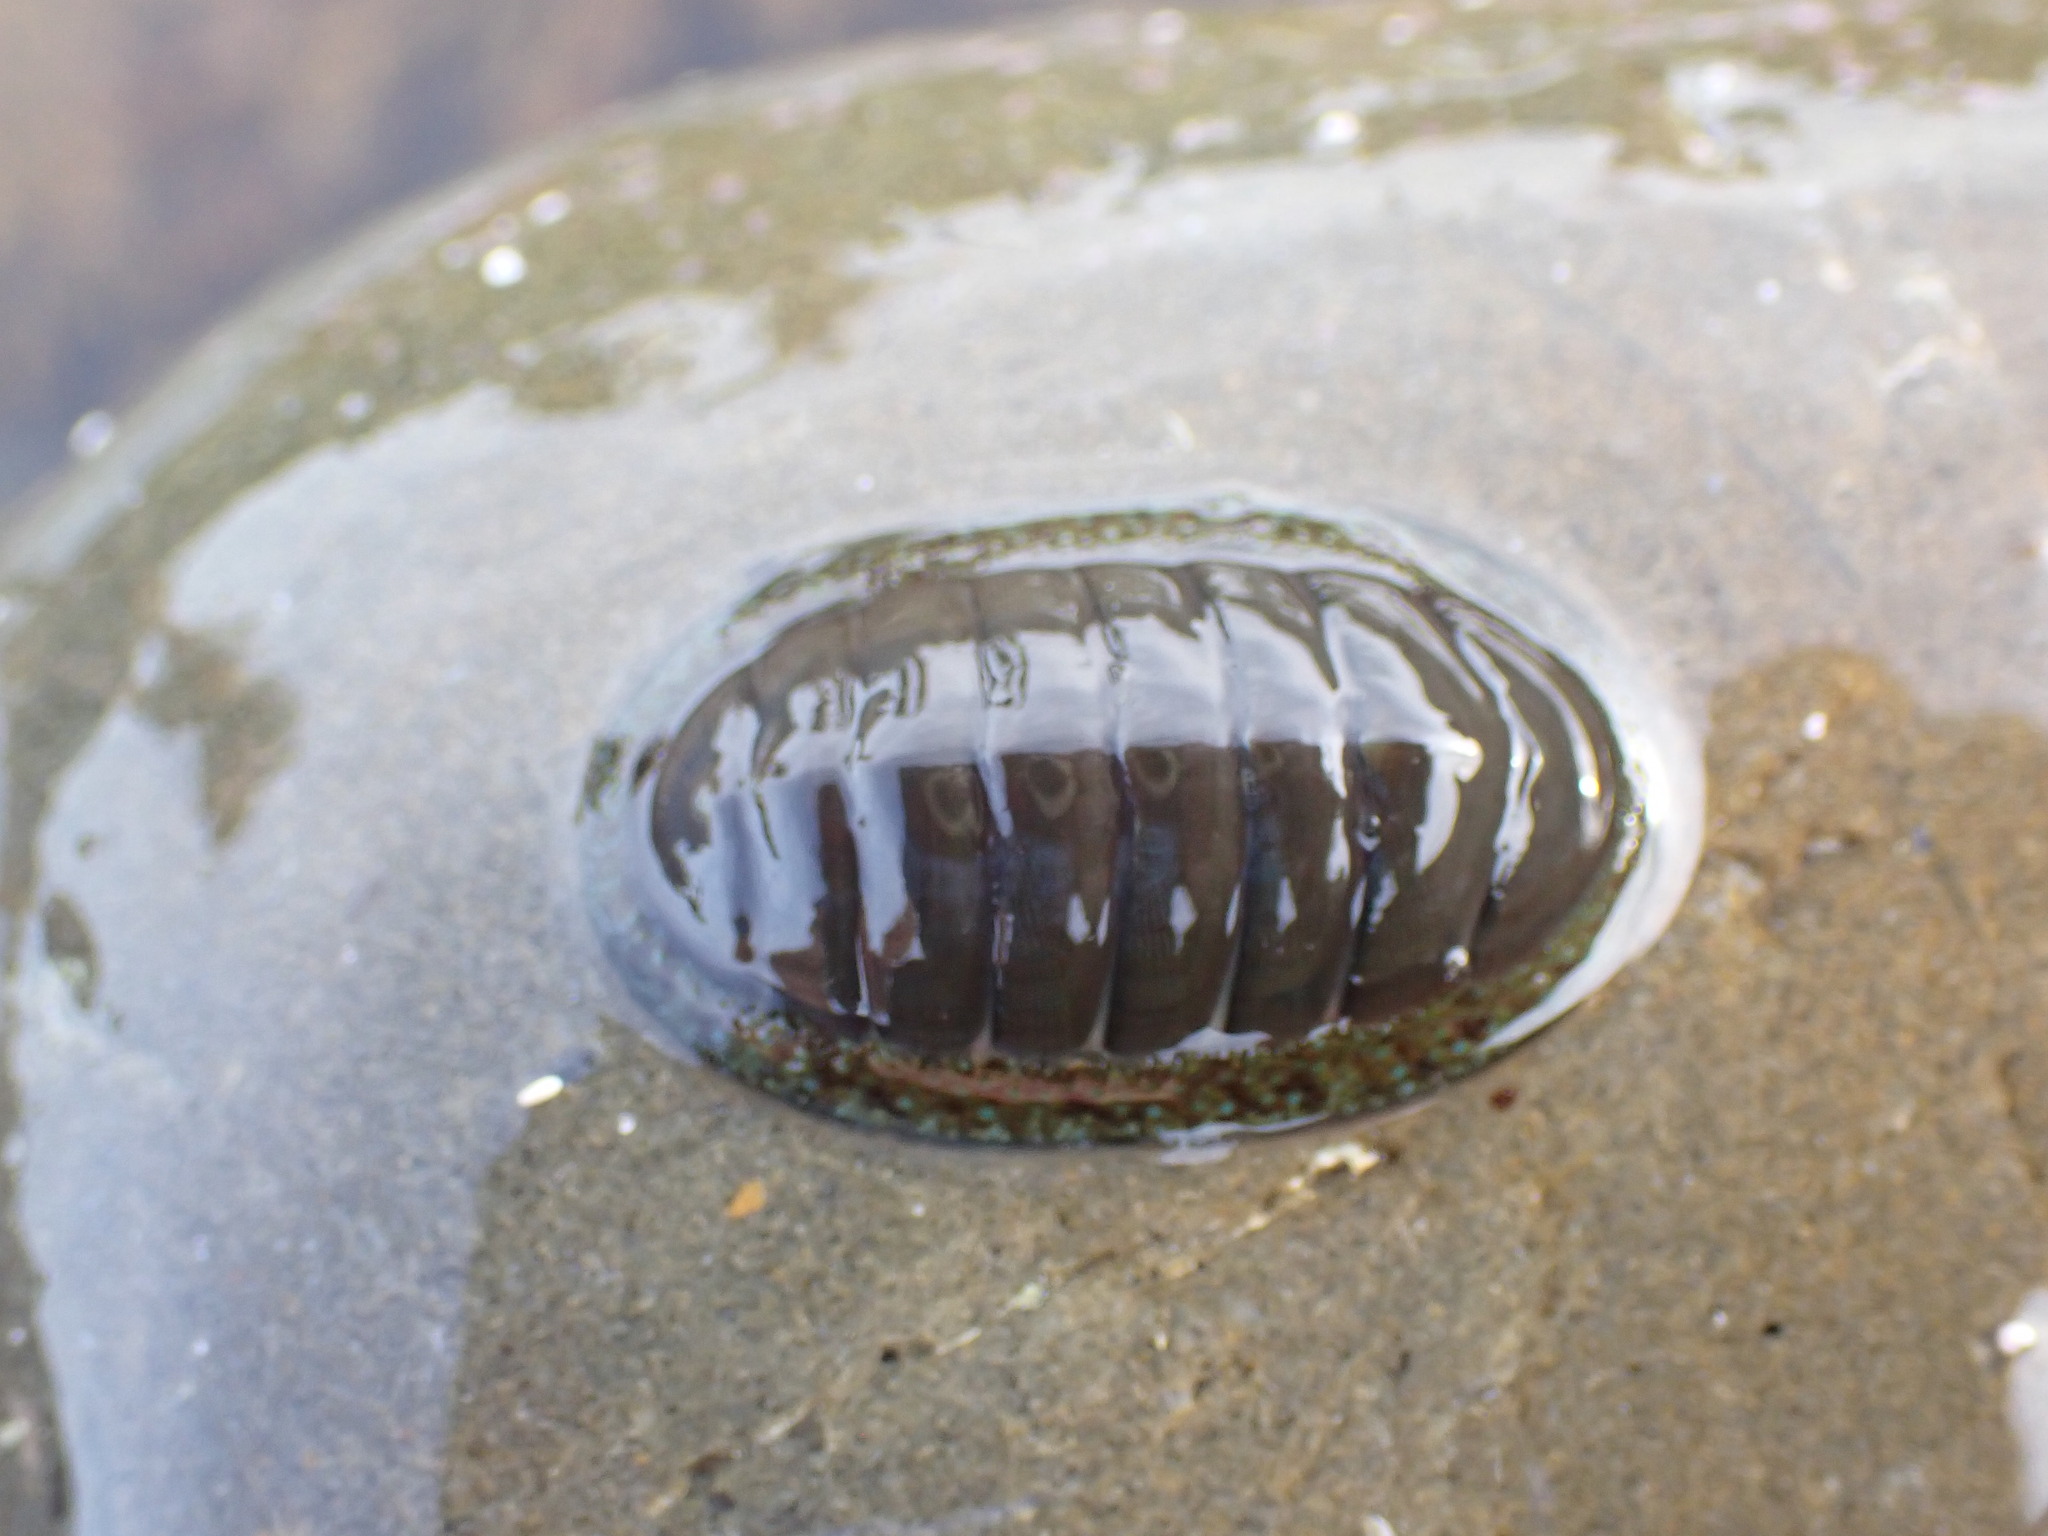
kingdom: Animalia
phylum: Mollusca
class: Polyplacophora
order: Chitonida
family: Chitonidae
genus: Chiton
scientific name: Chiton glaucus
